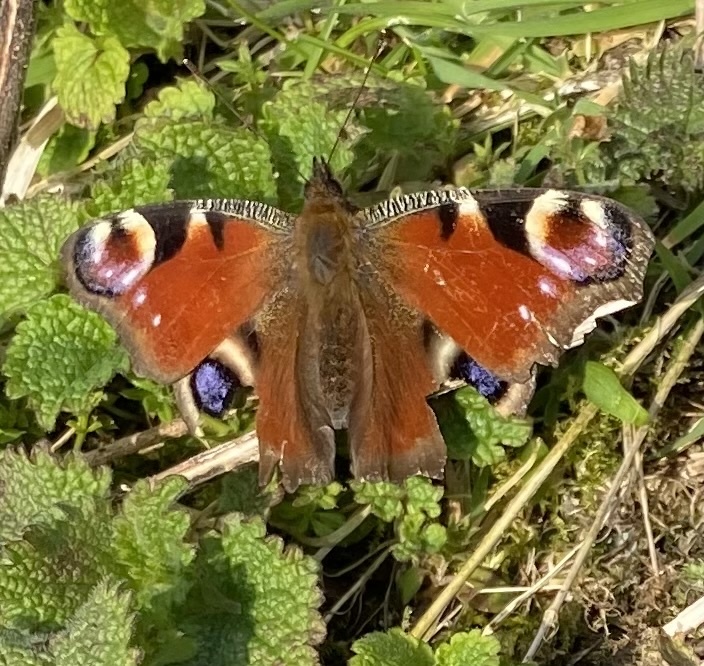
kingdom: Animalia
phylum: Arthropoda
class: Insecta
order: Lepidoptera
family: Nymphalidae
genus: Aglais
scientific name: Aglais io
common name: Peacock
